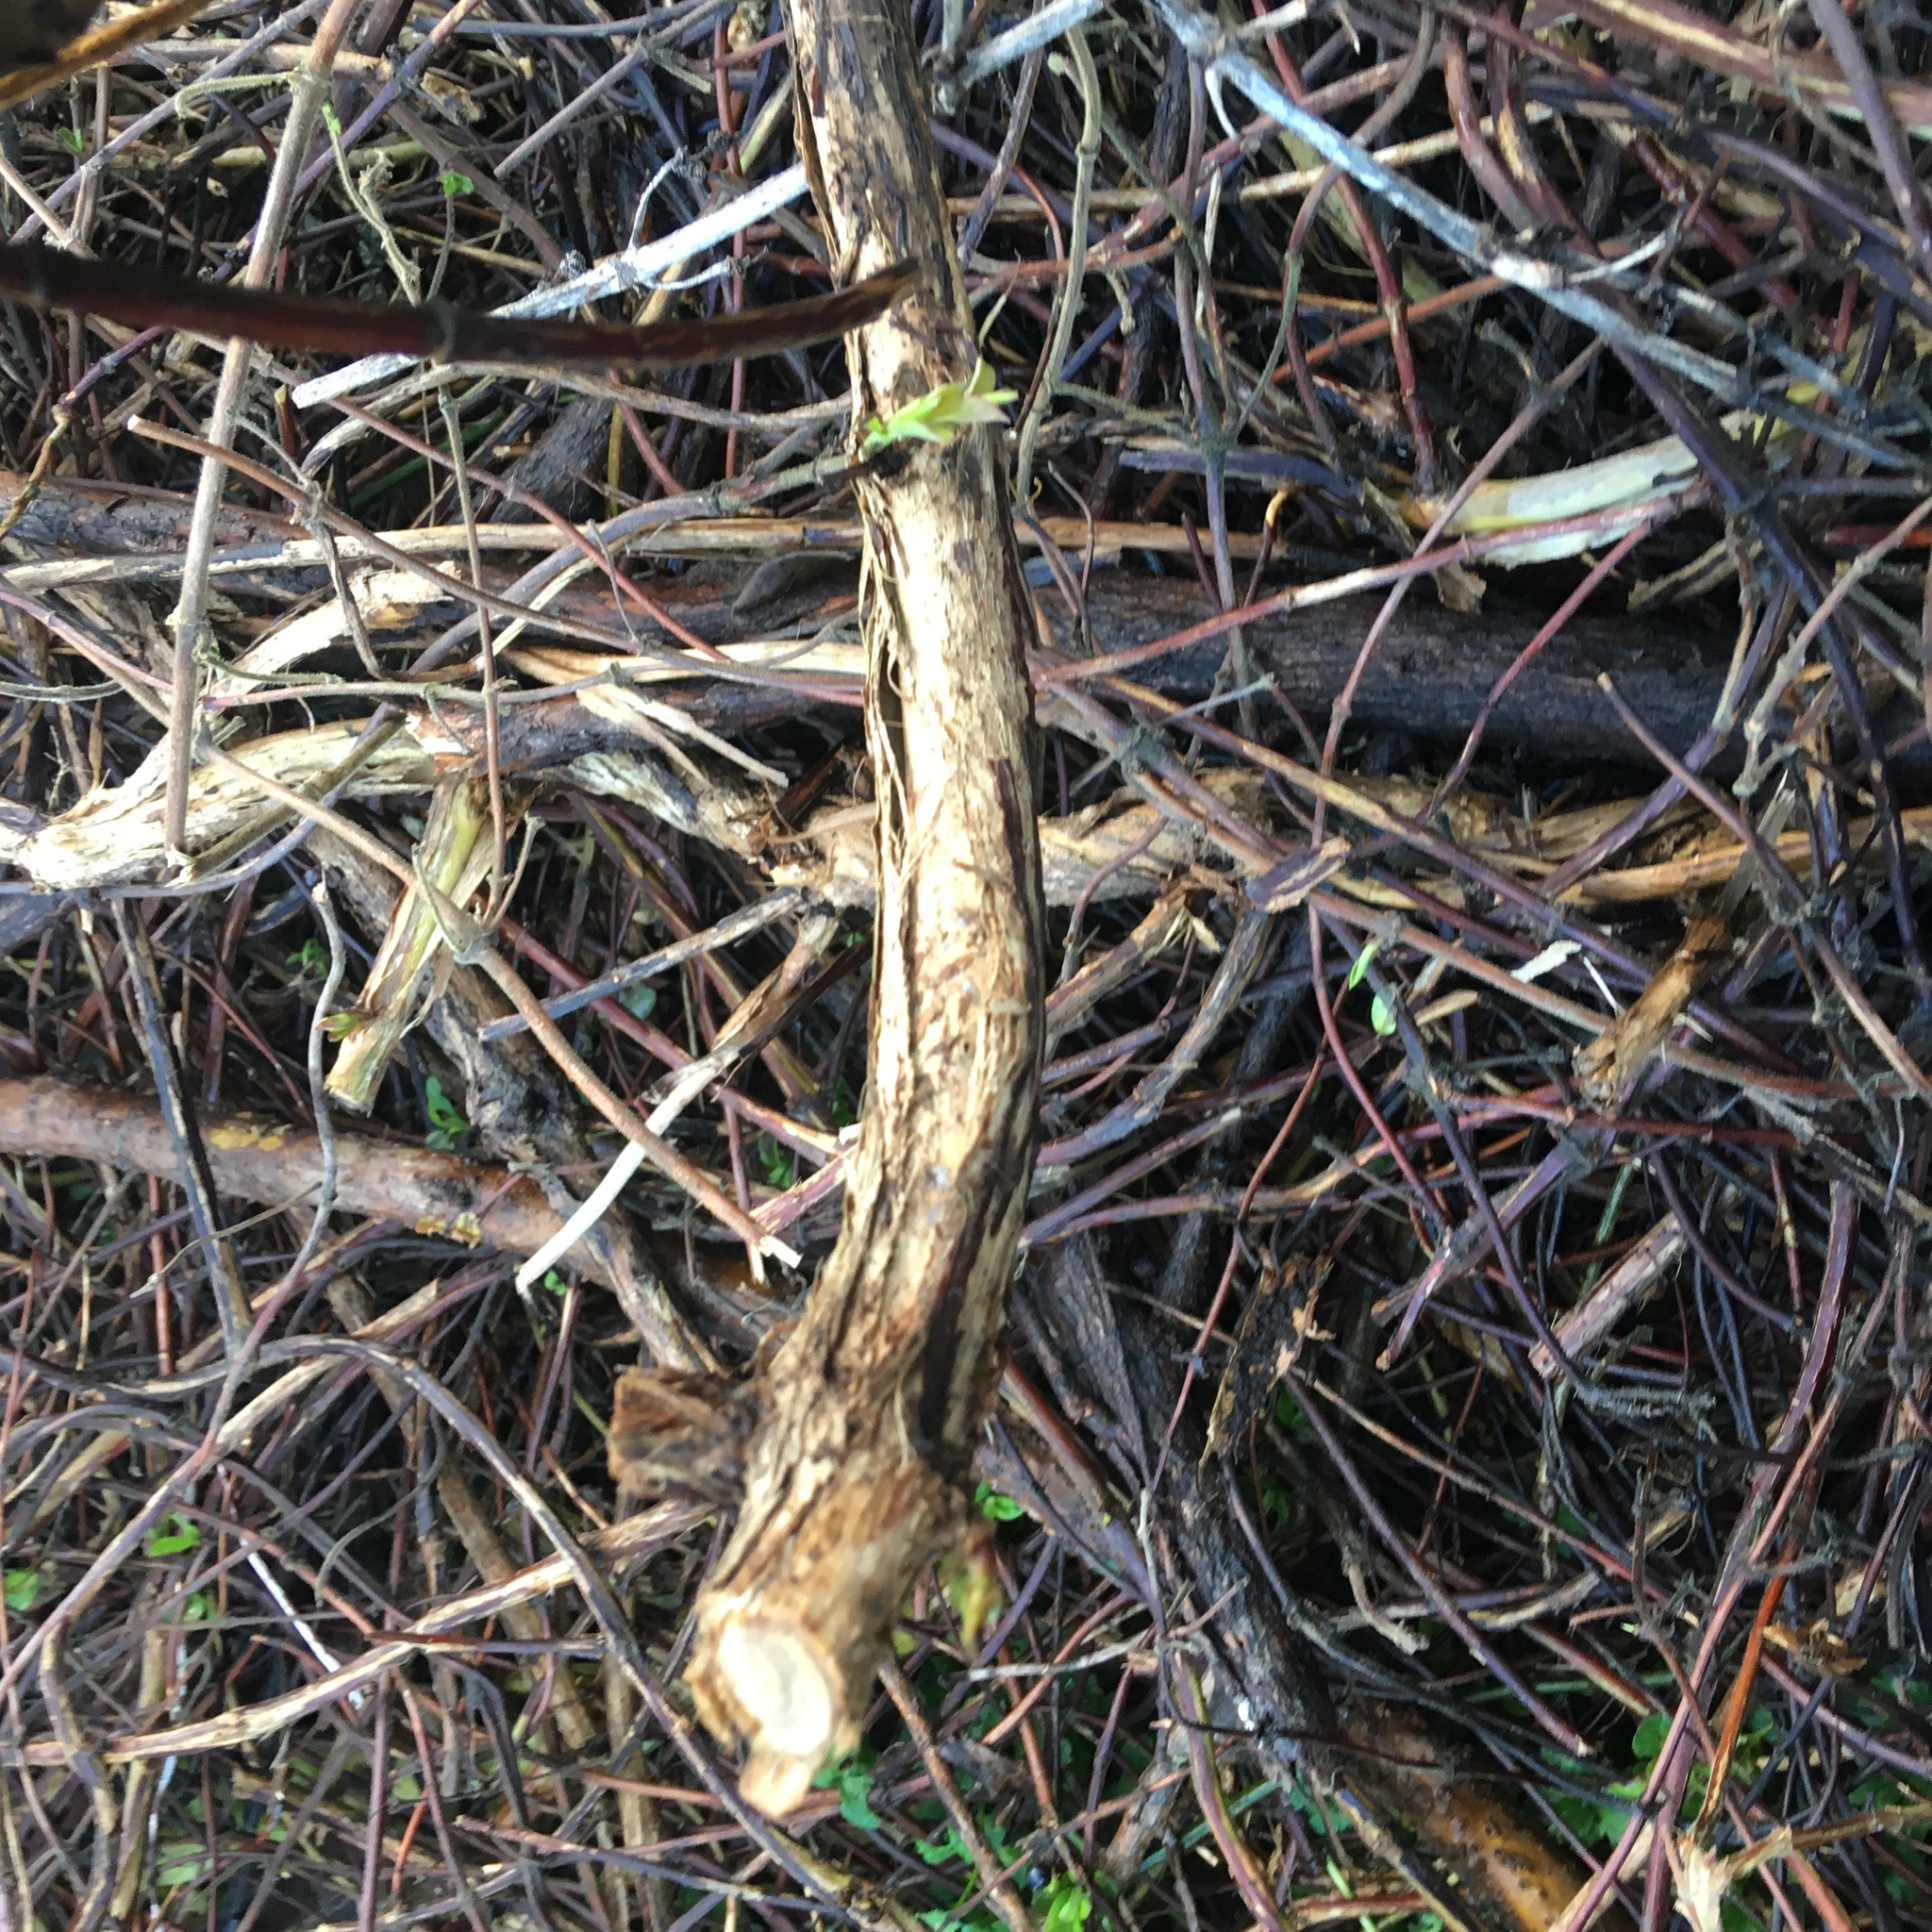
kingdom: Plantae
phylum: Tracheophyta
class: Magnoliopsida
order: Dipsacales
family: Caprifoliaceae
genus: Lonicera
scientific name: Lonicera japonica
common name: Japanese honeysuckle
